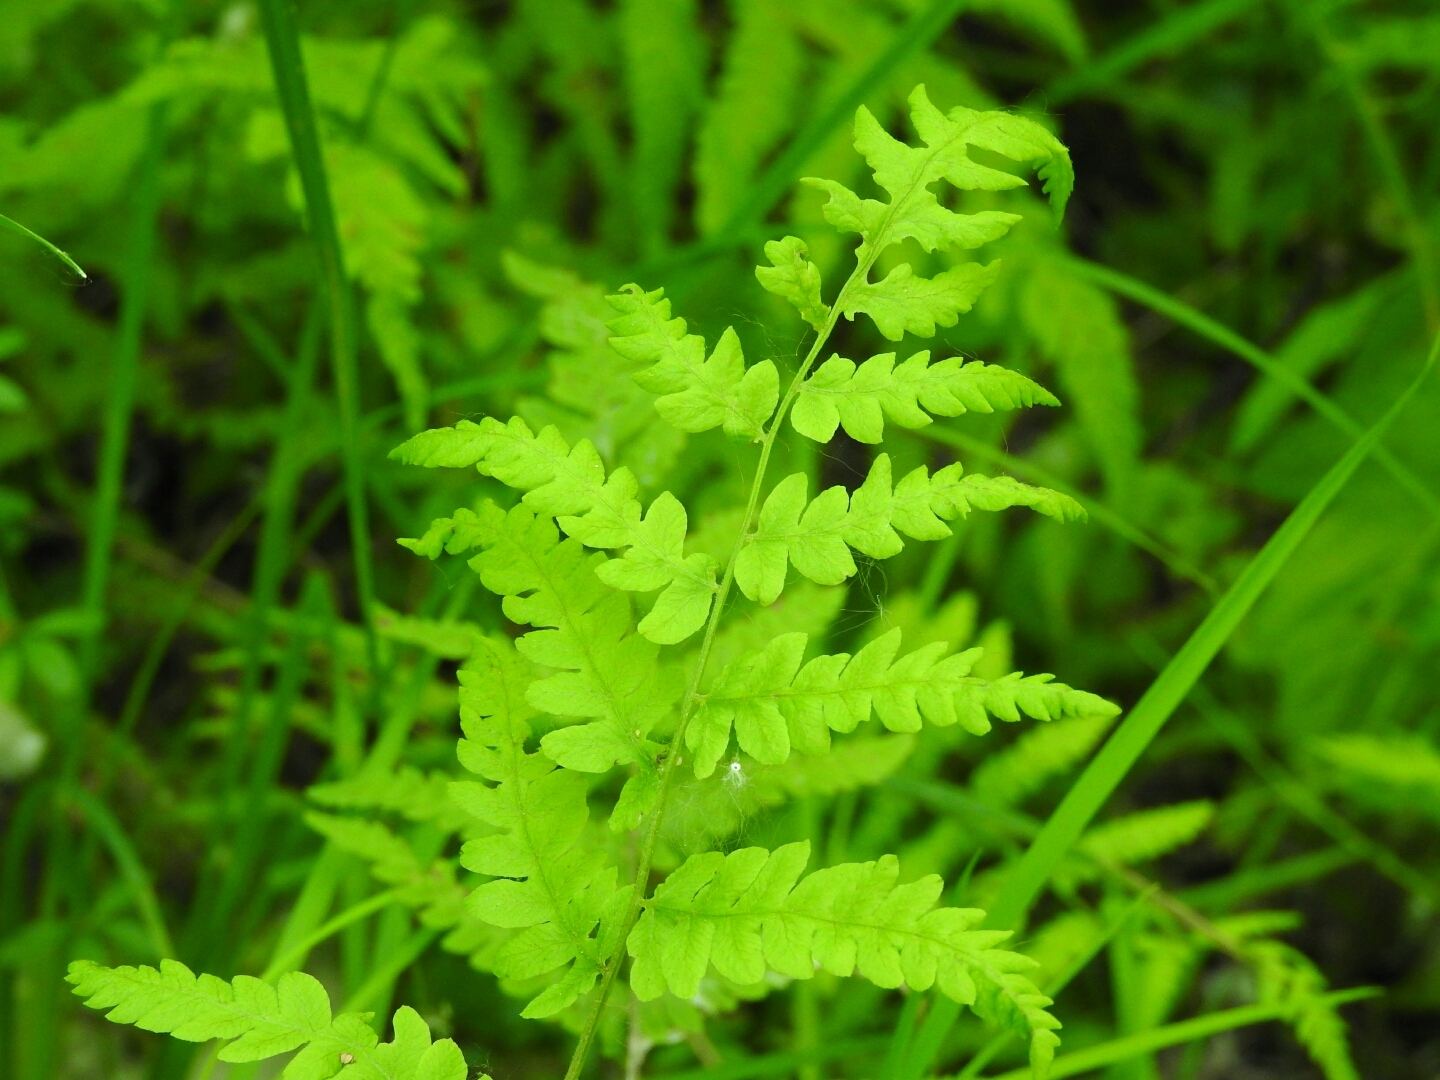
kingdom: Plantae
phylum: Tracheophyta
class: Polypodiopsida
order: Polypodiales
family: Thelypteridaceae
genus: Thelypteris
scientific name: Thelypteris palustris
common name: Marsh fern
